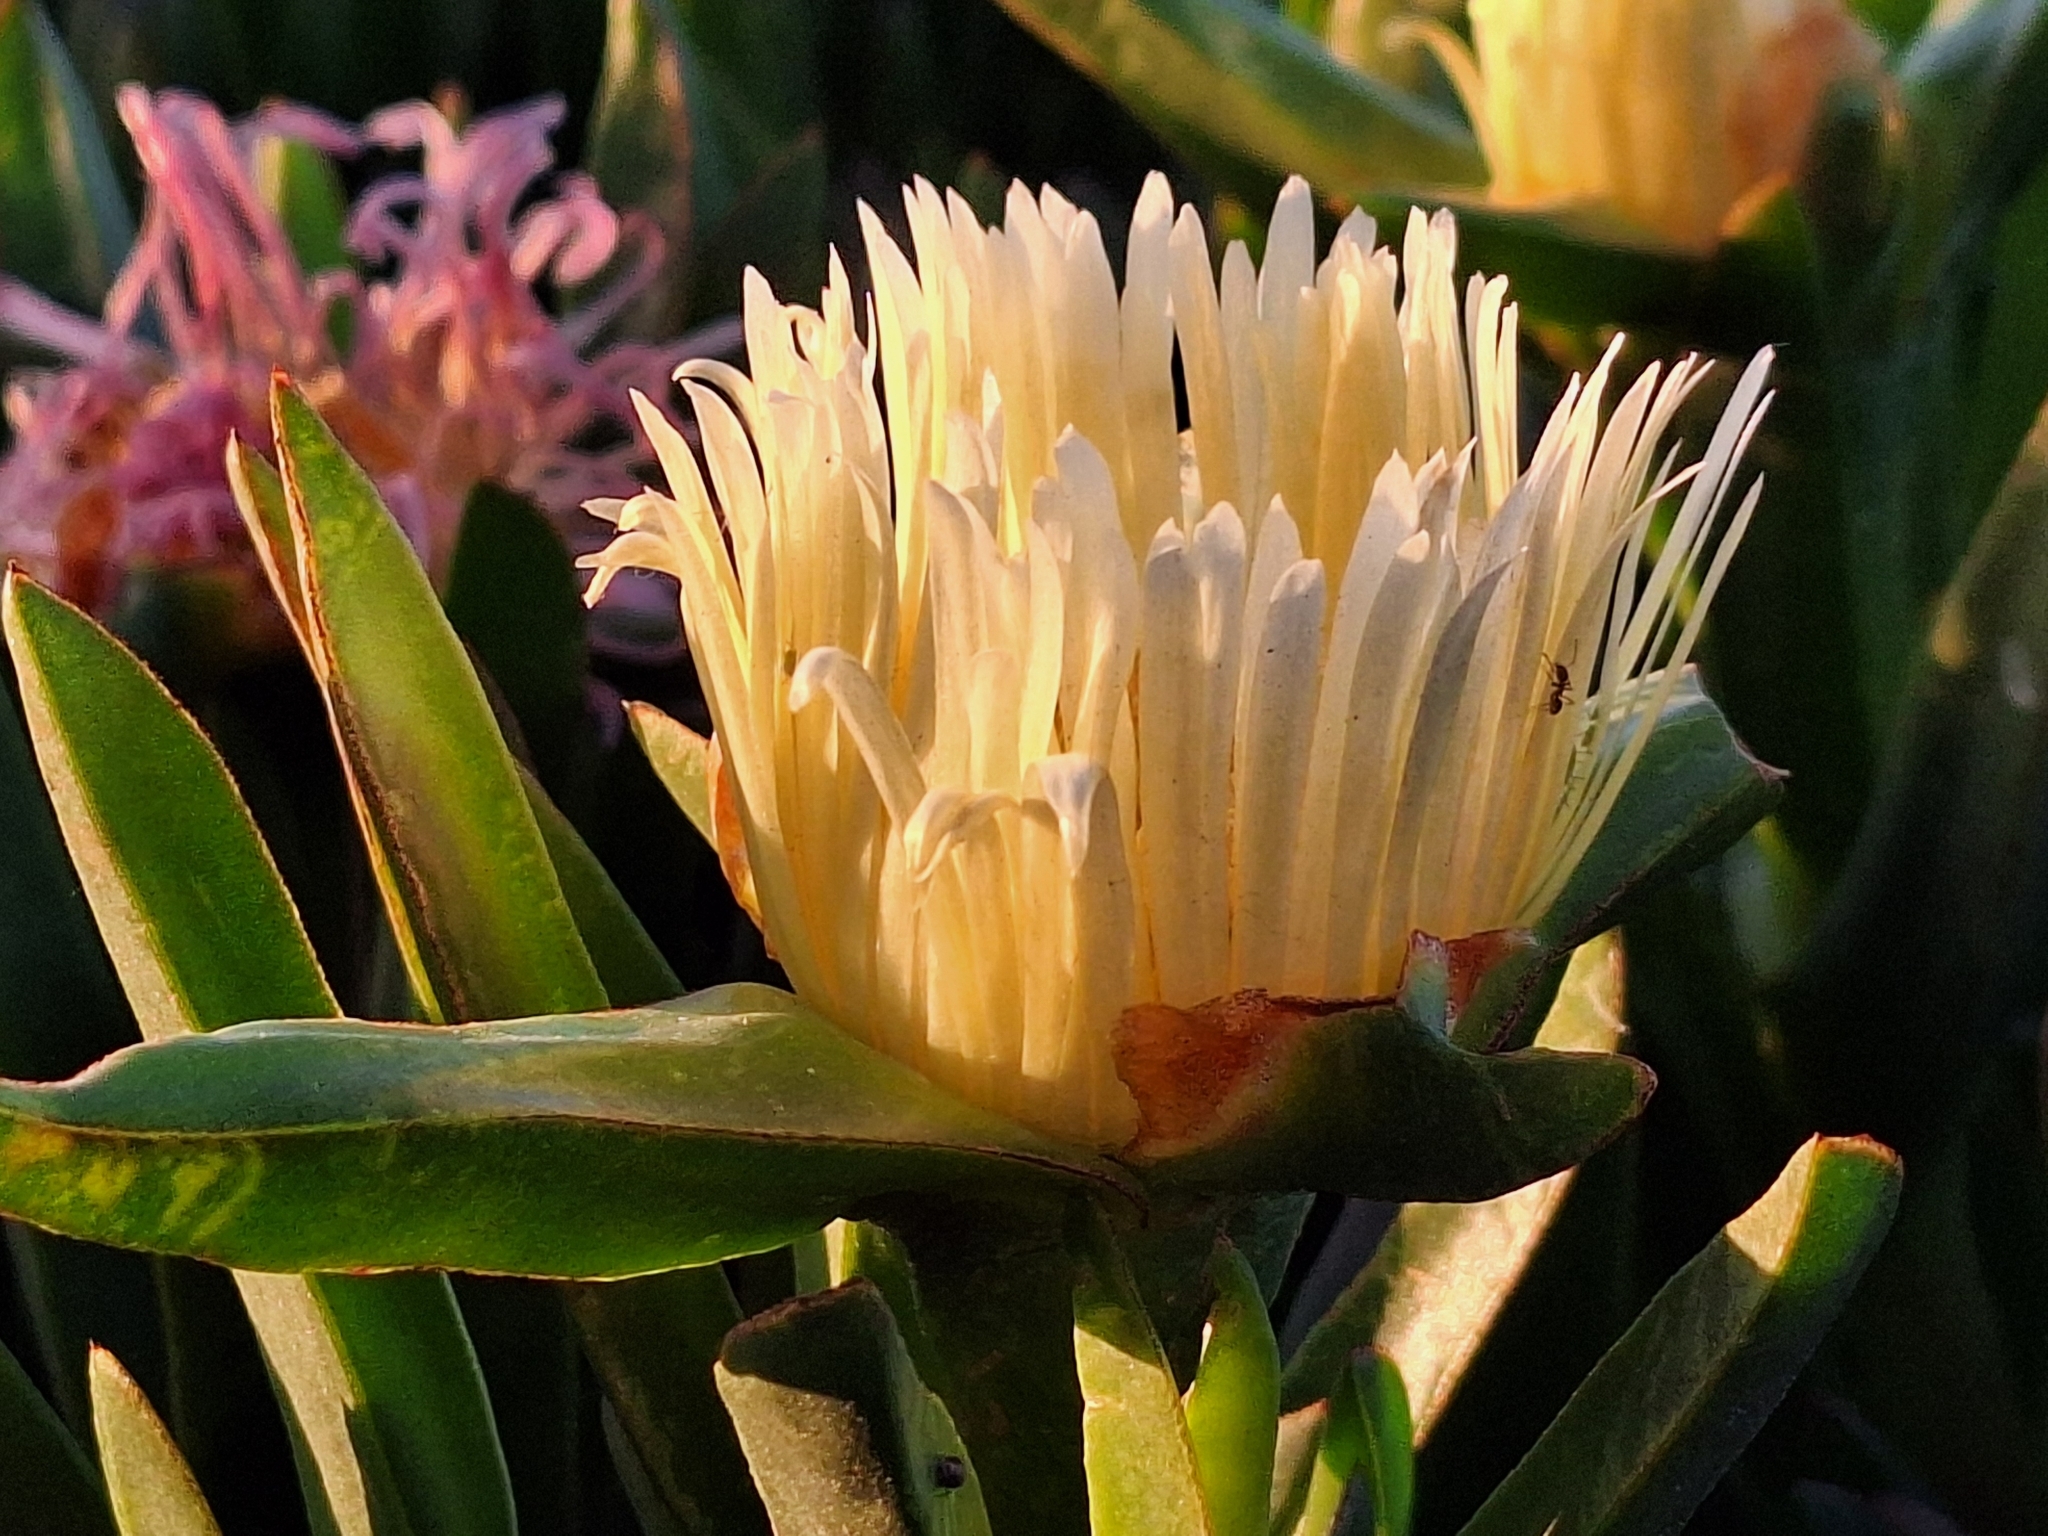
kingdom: Plantae
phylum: Tracheophyta
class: Magnoliopsida
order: Caryophyllales
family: Aizoaceae
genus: Carpobrotus
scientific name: Carpobrotus edulis
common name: Hottentot-fig
